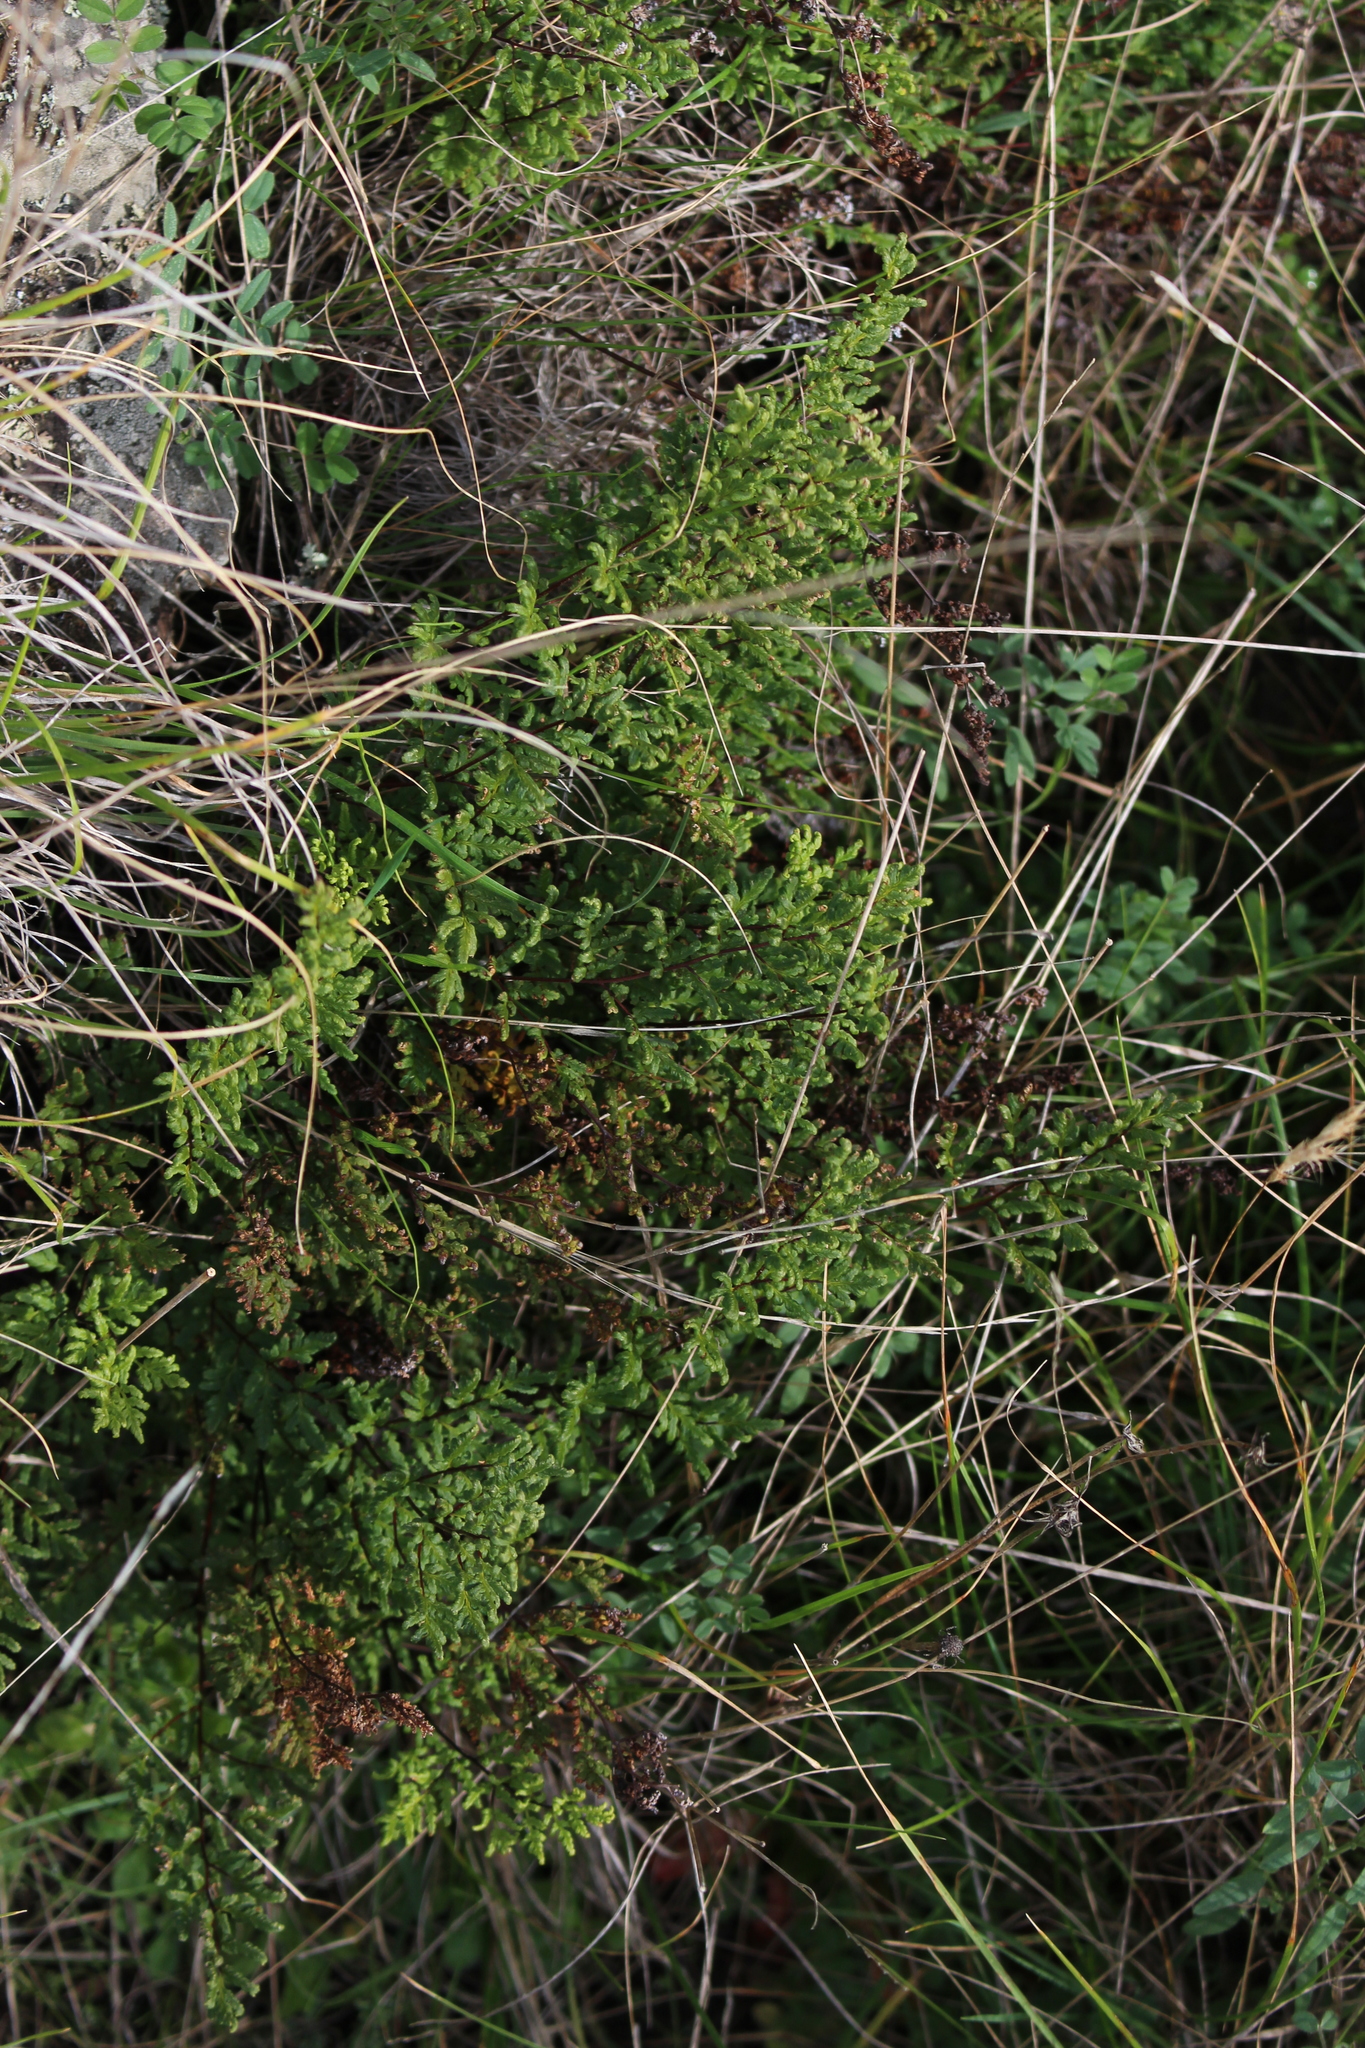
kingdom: Plantae
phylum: Tracheophyta
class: Polypodiopsida
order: Polypodiales
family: Pteridaceae
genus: Cheilanthes
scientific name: Cheilanthes sieberi
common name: Mulga fern
